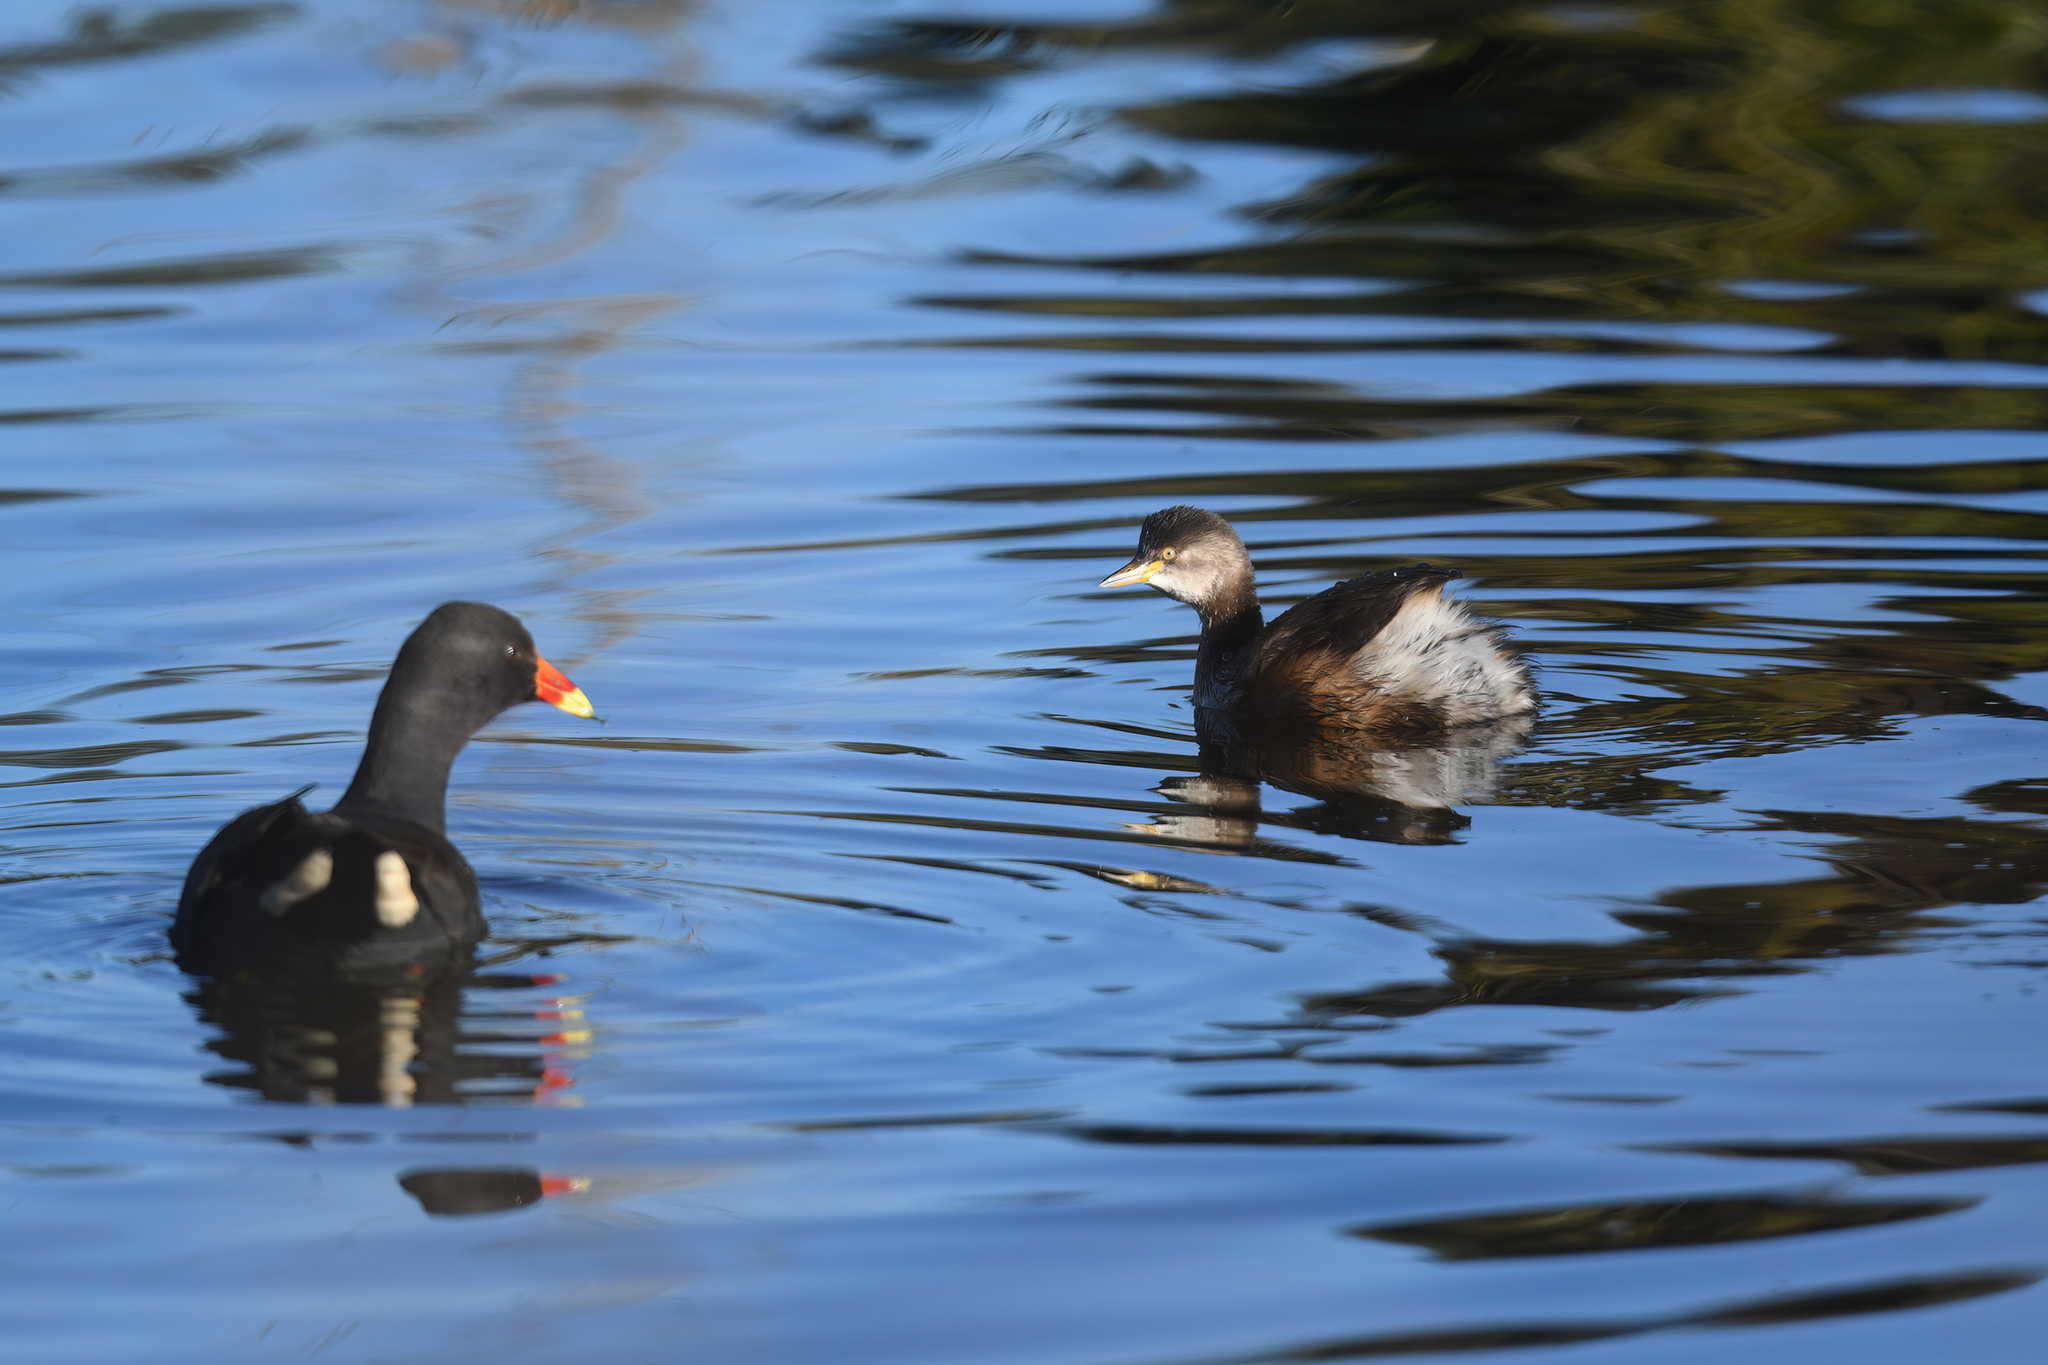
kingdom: Animalia
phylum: Chordata
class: Aves
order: Podicipediformes
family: Podicipedidae
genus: Tachybaptus
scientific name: Tachybaptus novaehollandiae
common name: Australasian grebe
